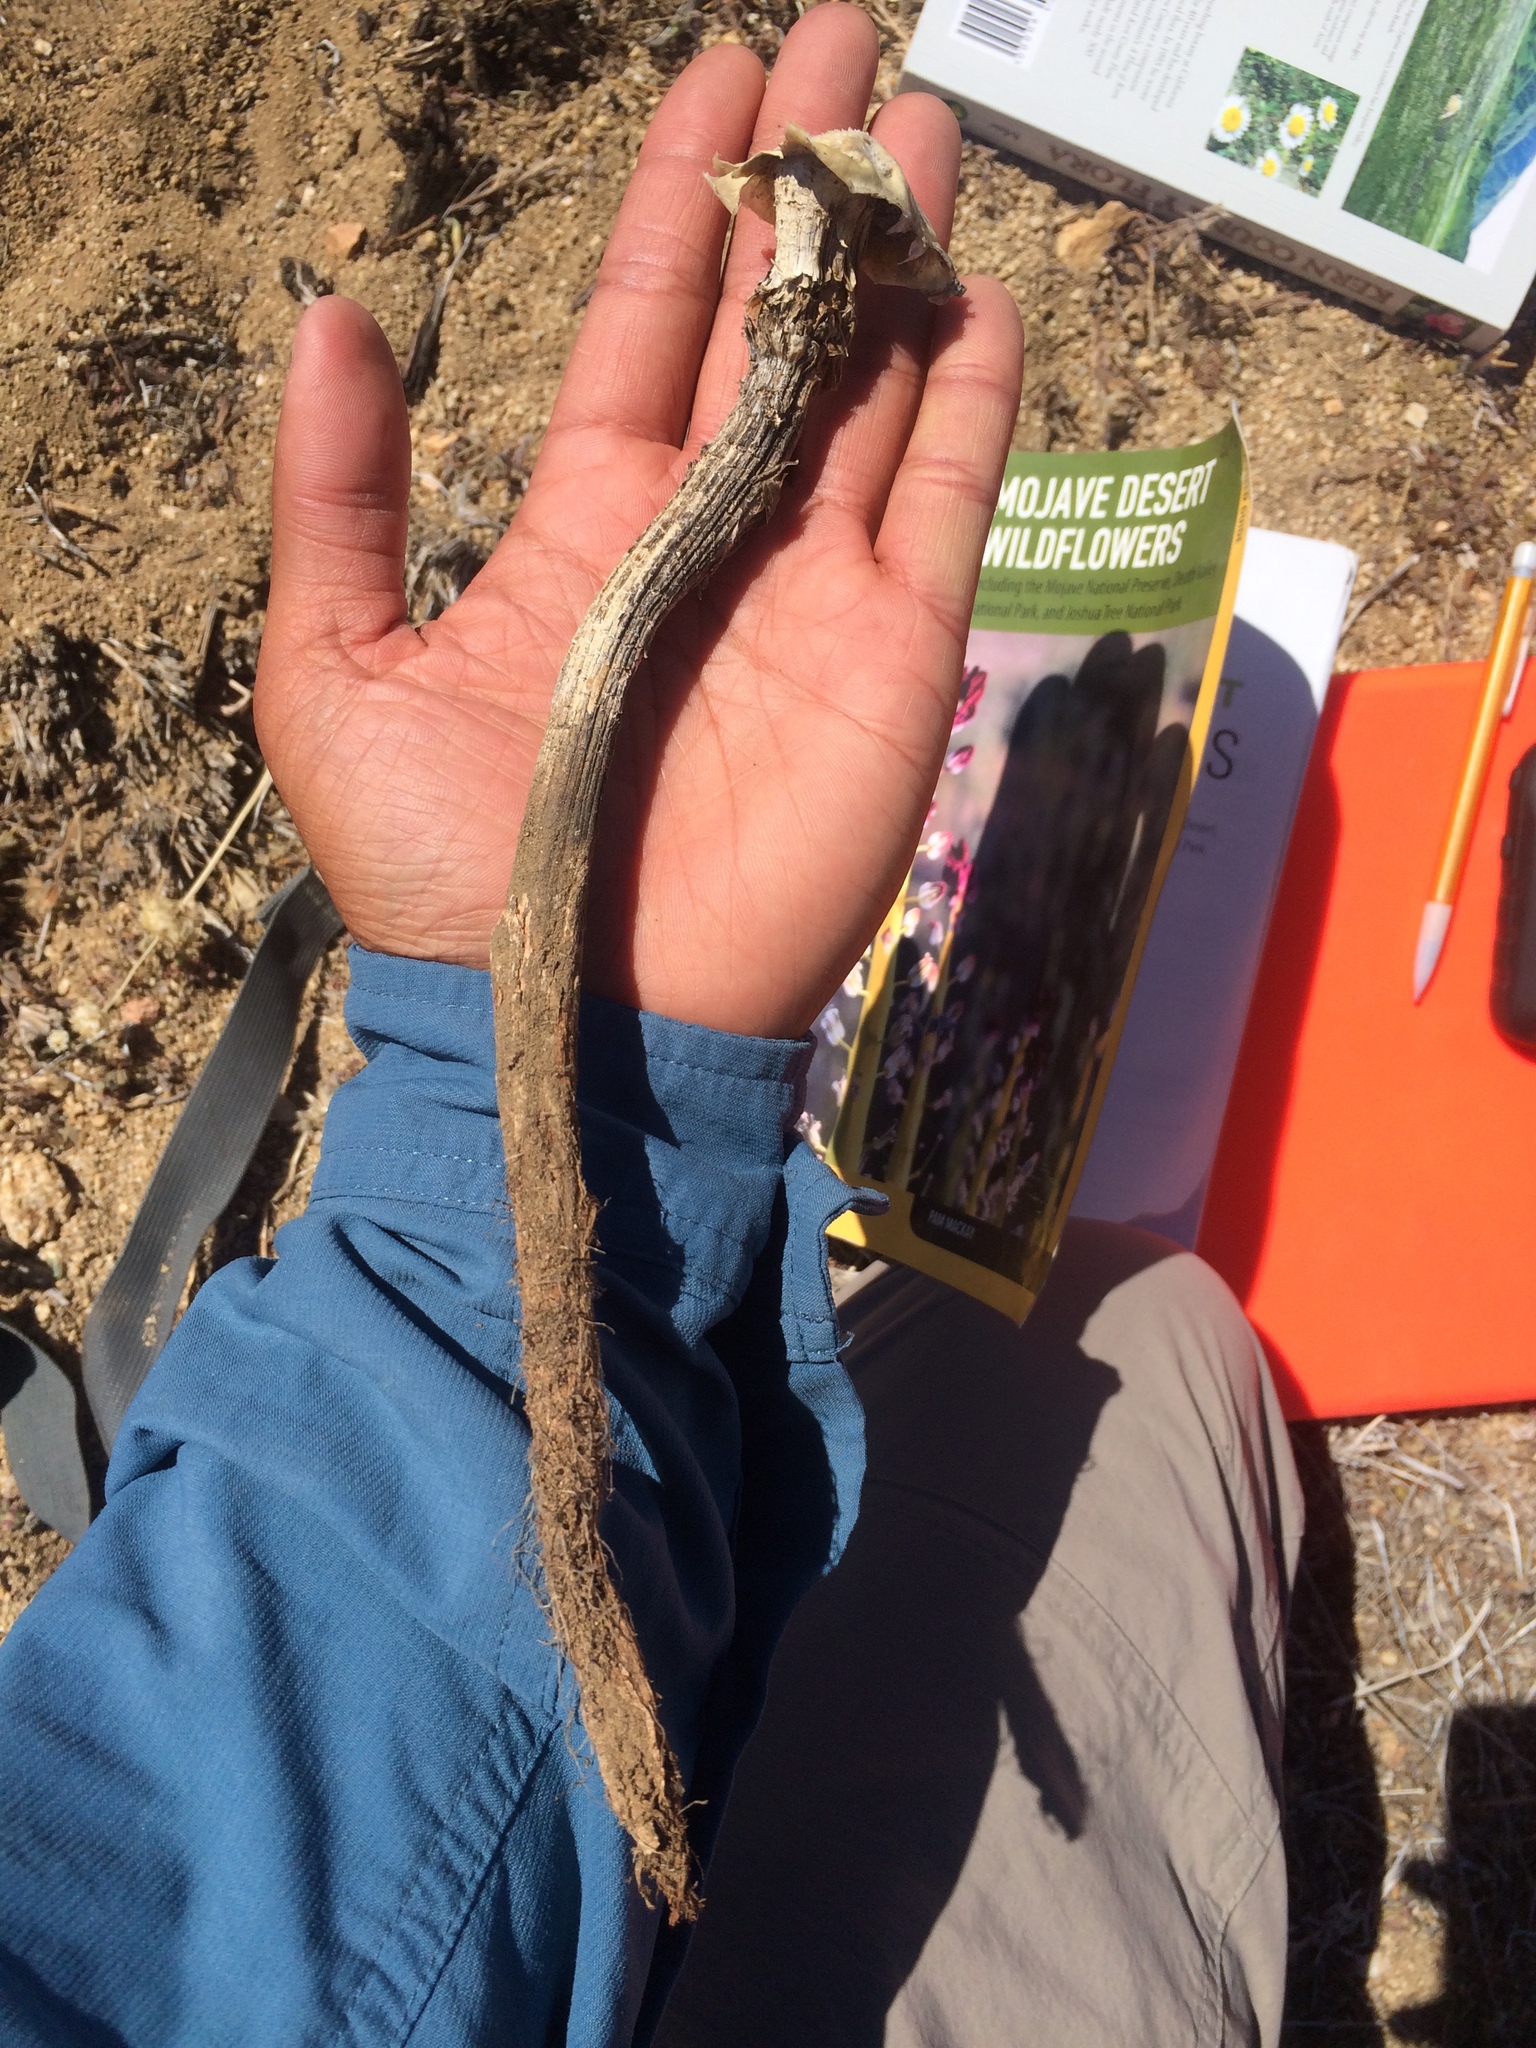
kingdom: Fungi
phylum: Basidiomycota
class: Agaricomycetes
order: Agaricales
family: Agaricaceae
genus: Battarrea
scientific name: Battarrea phalloides
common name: Sandy stiltball
